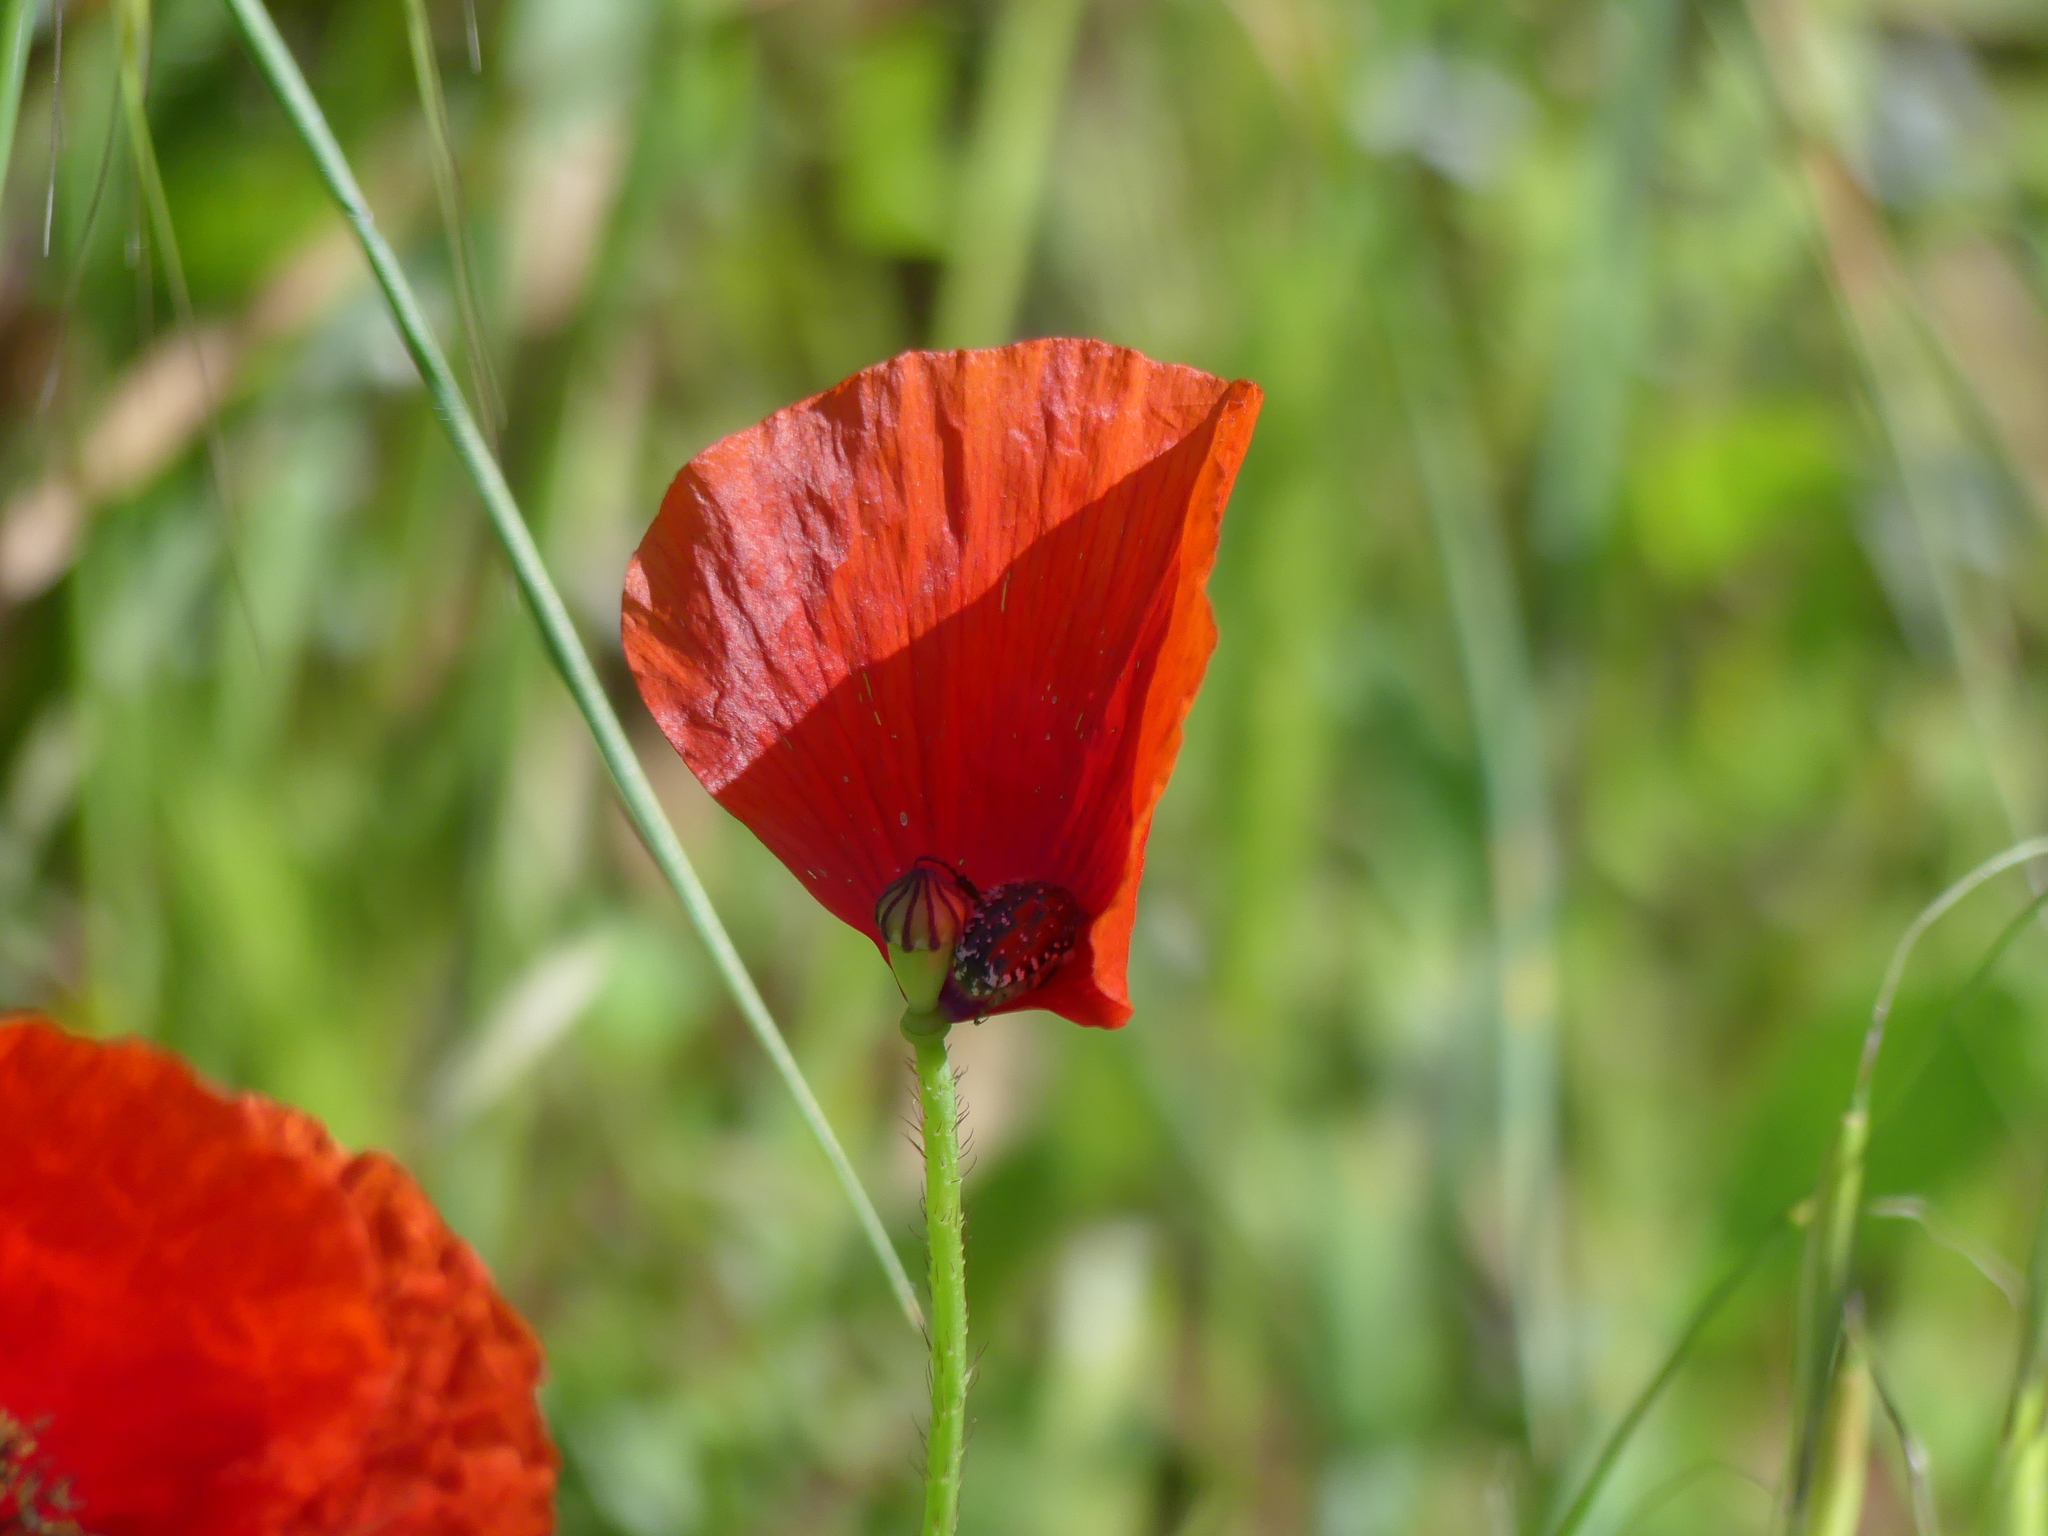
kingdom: Plantae
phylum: Tracheophyta
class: Magnoliopsida
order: Ranunculales
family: Papaveraceae
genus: Papaver
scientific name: Papaver rhoeas
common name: Corn poppy
